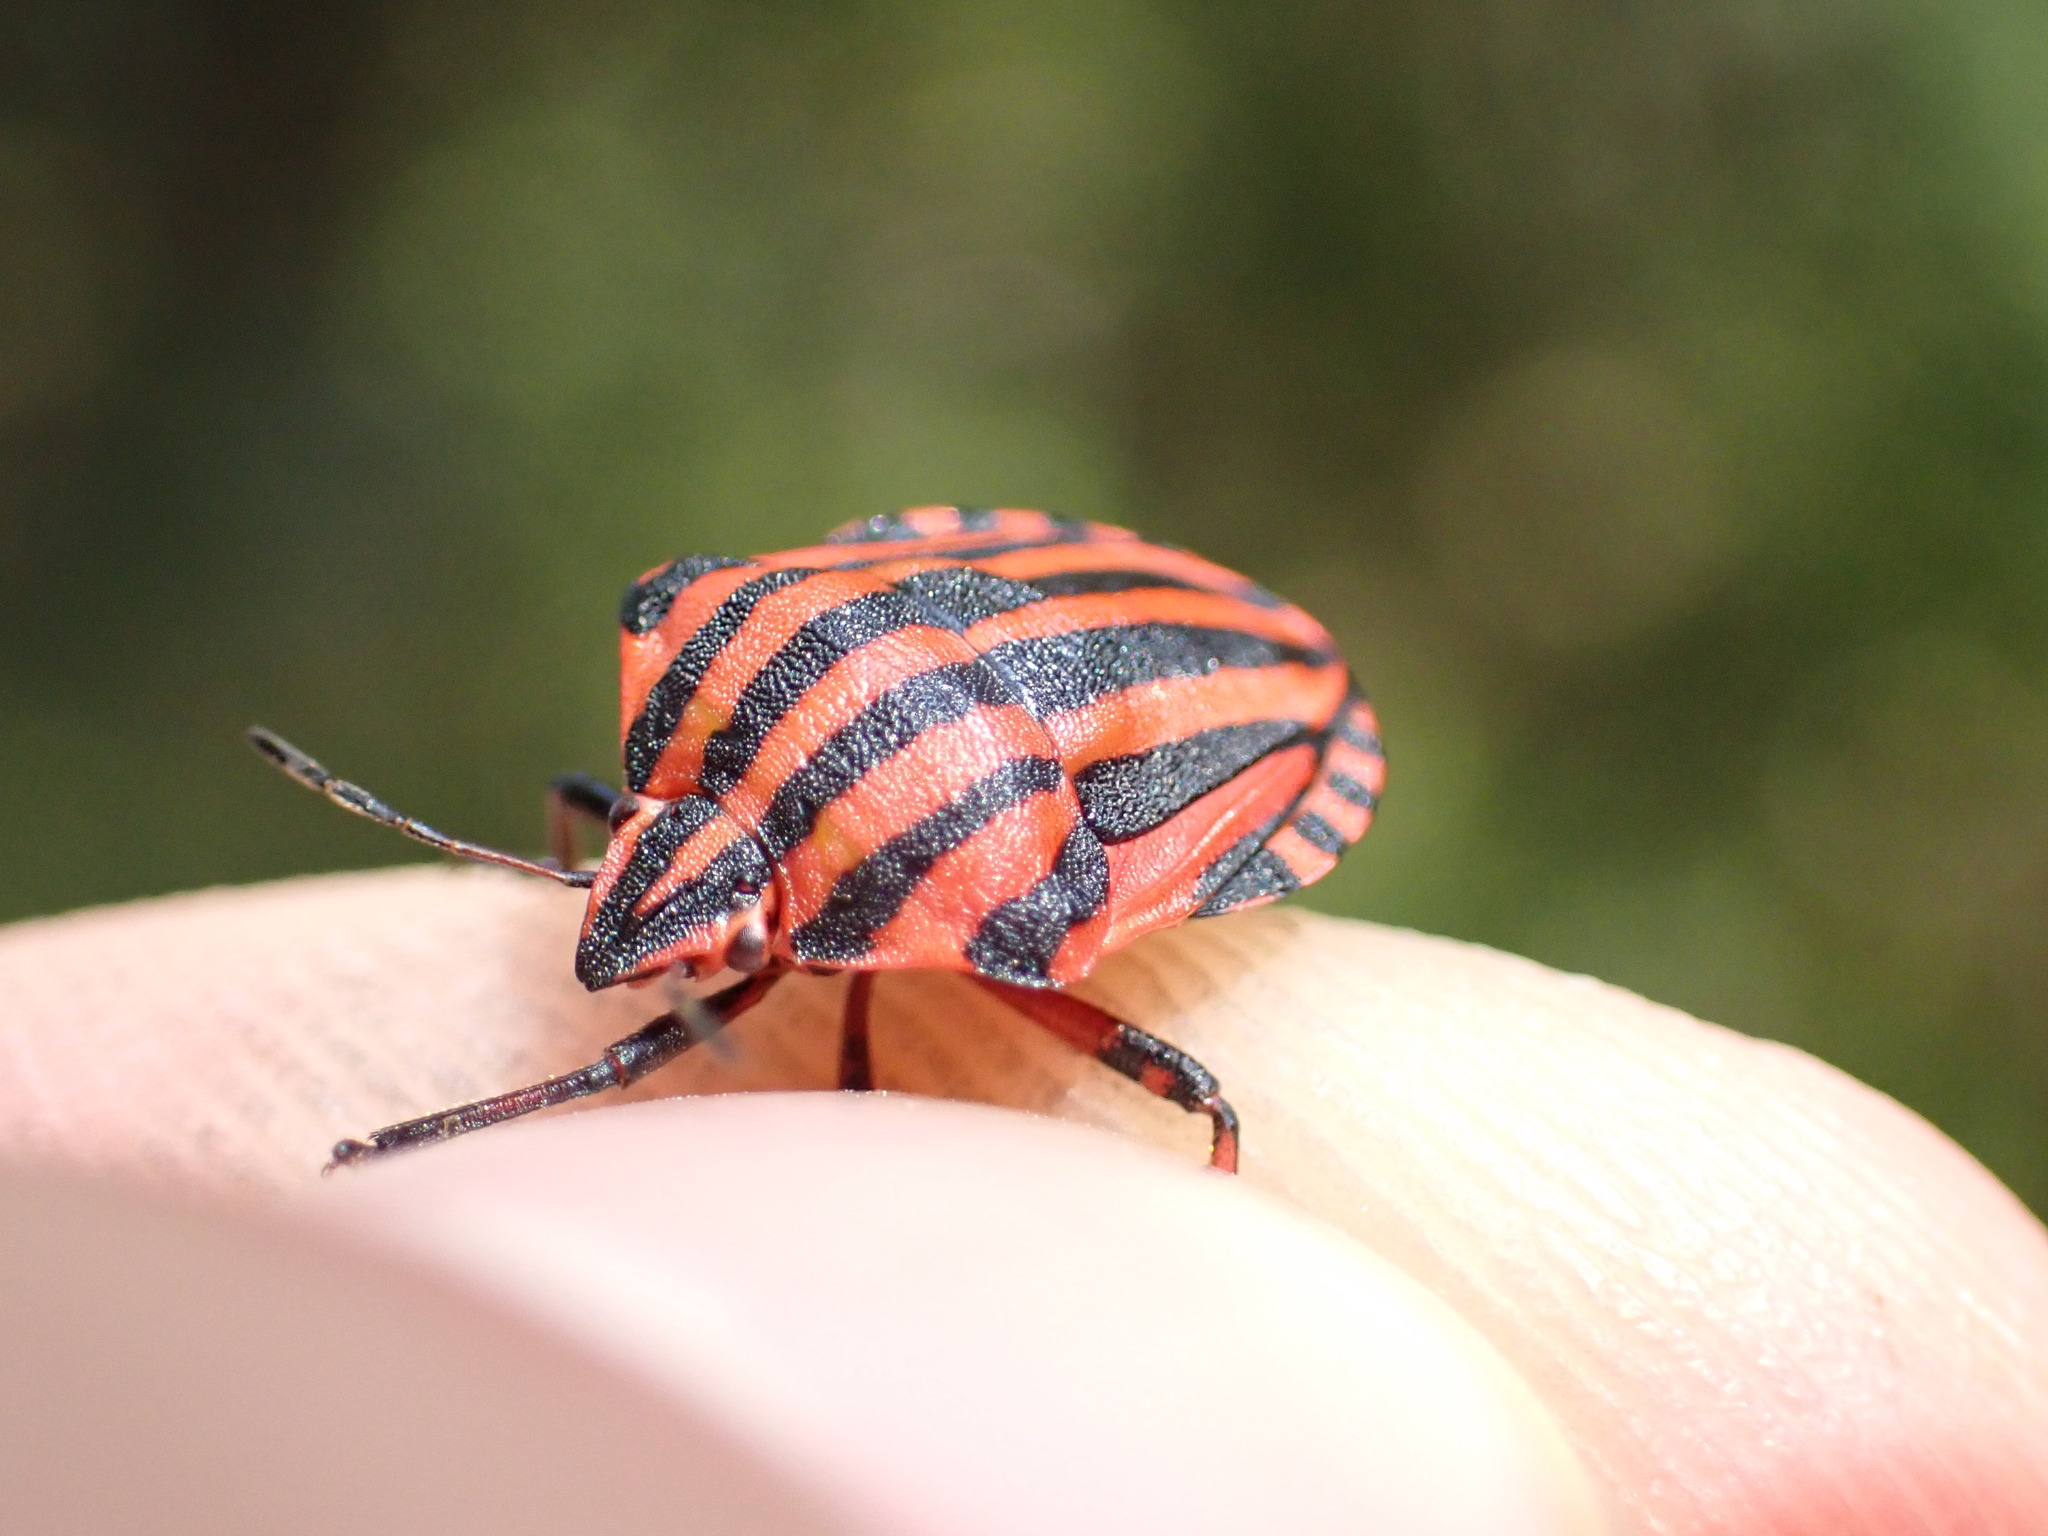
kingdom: Animalia
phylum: Arthropoda
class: Insecta
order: Hemiptera
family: Pentatomidae
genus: Graphosoma
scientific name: Graphosoma italicum
